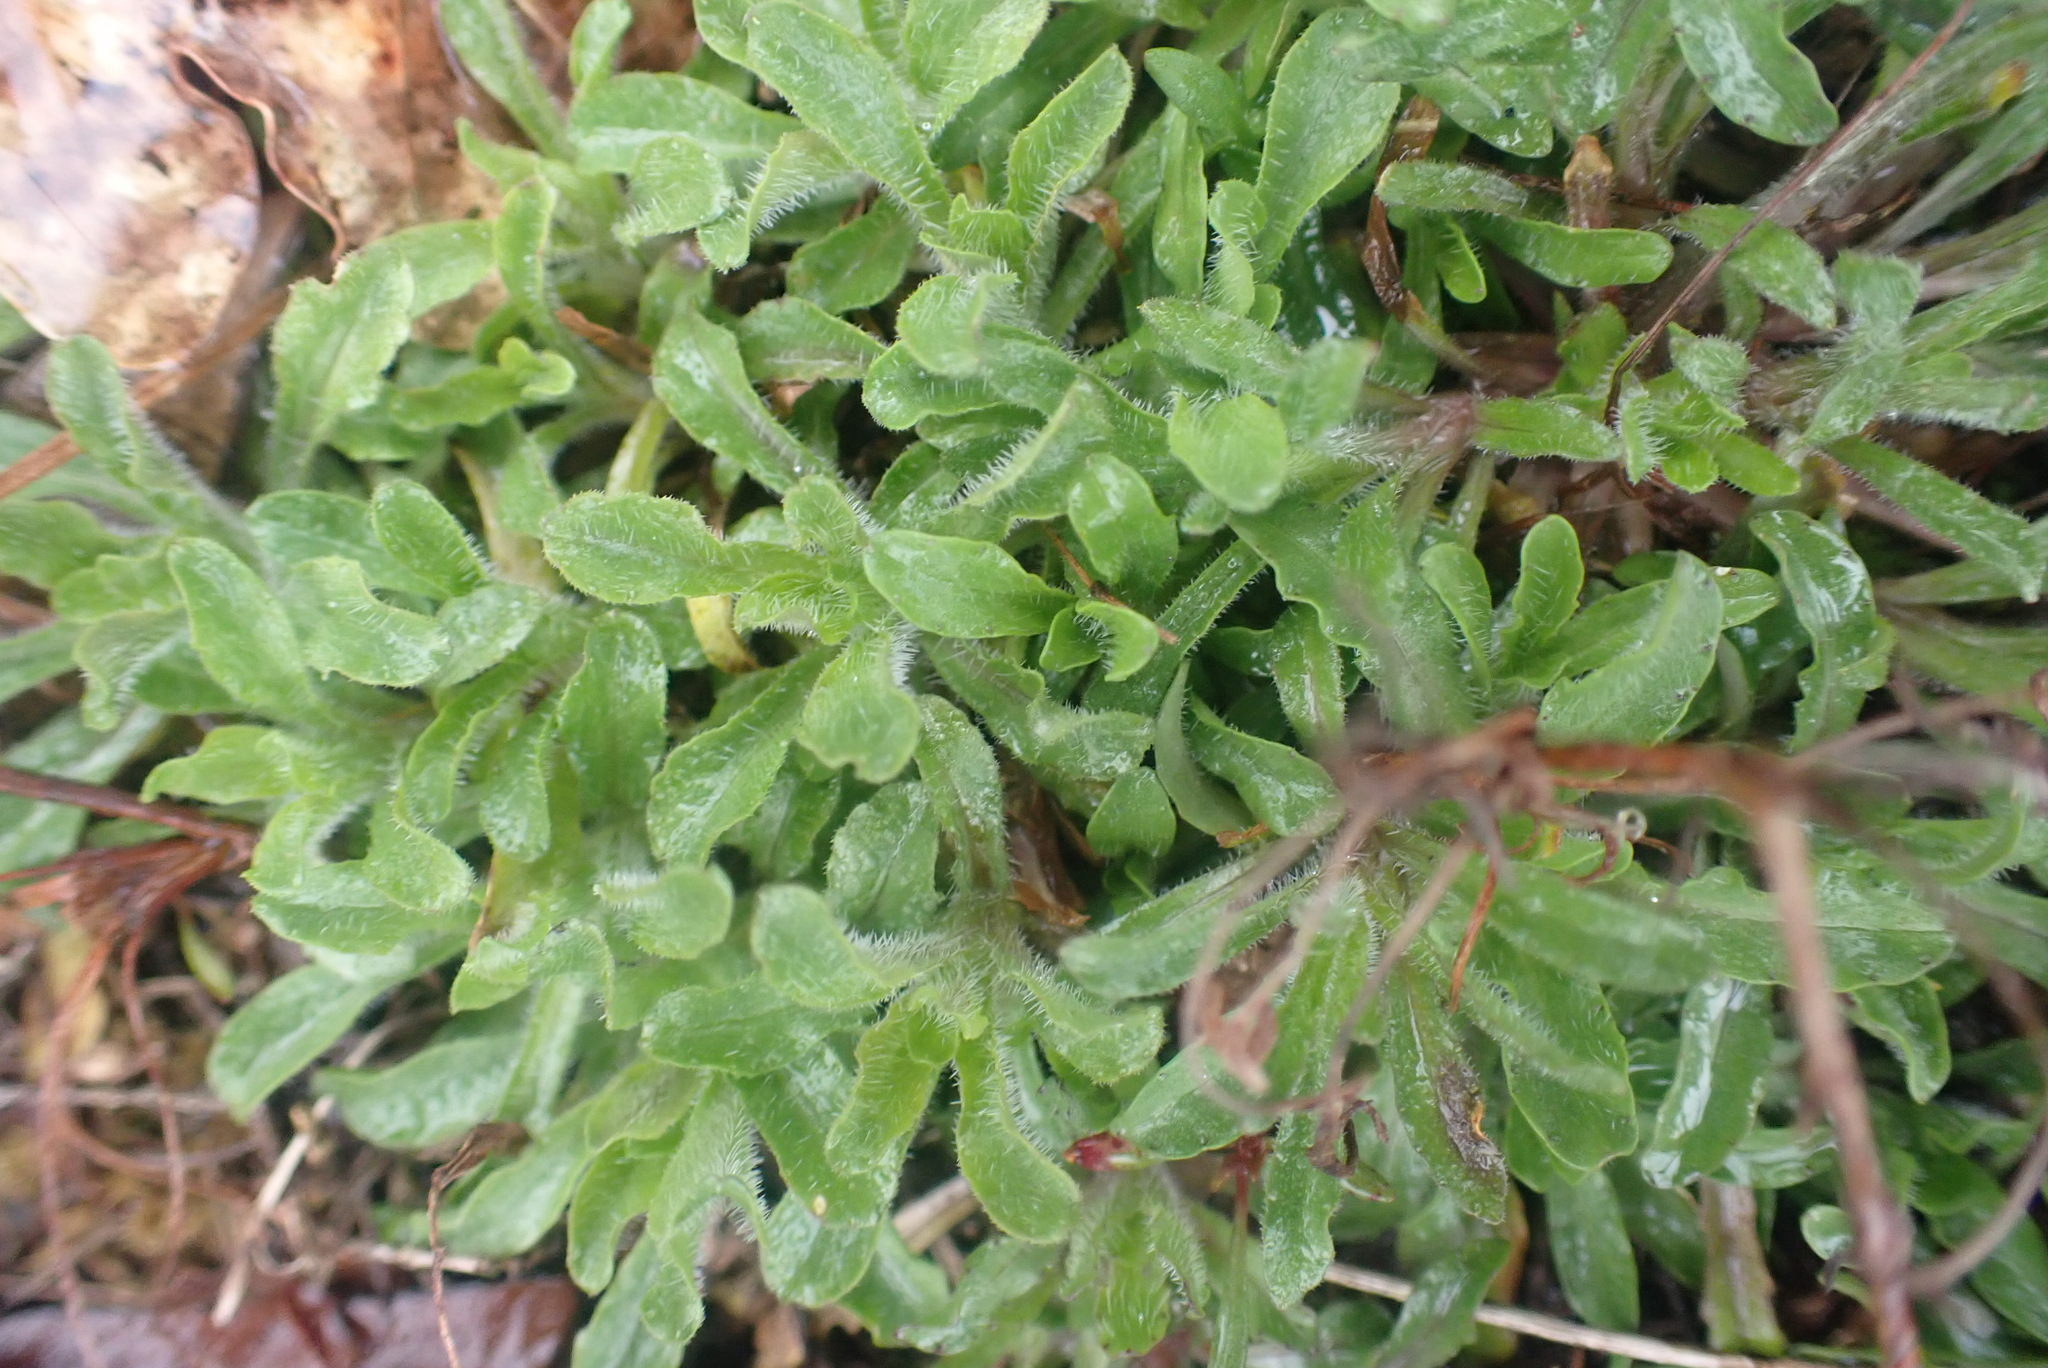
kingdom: Plantae
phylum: Tracheophyta
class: Magnoliopsida
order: Asterales
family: Campanulaceae
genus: Jasione
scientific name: Jasione montana
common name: Sheep's-bit
